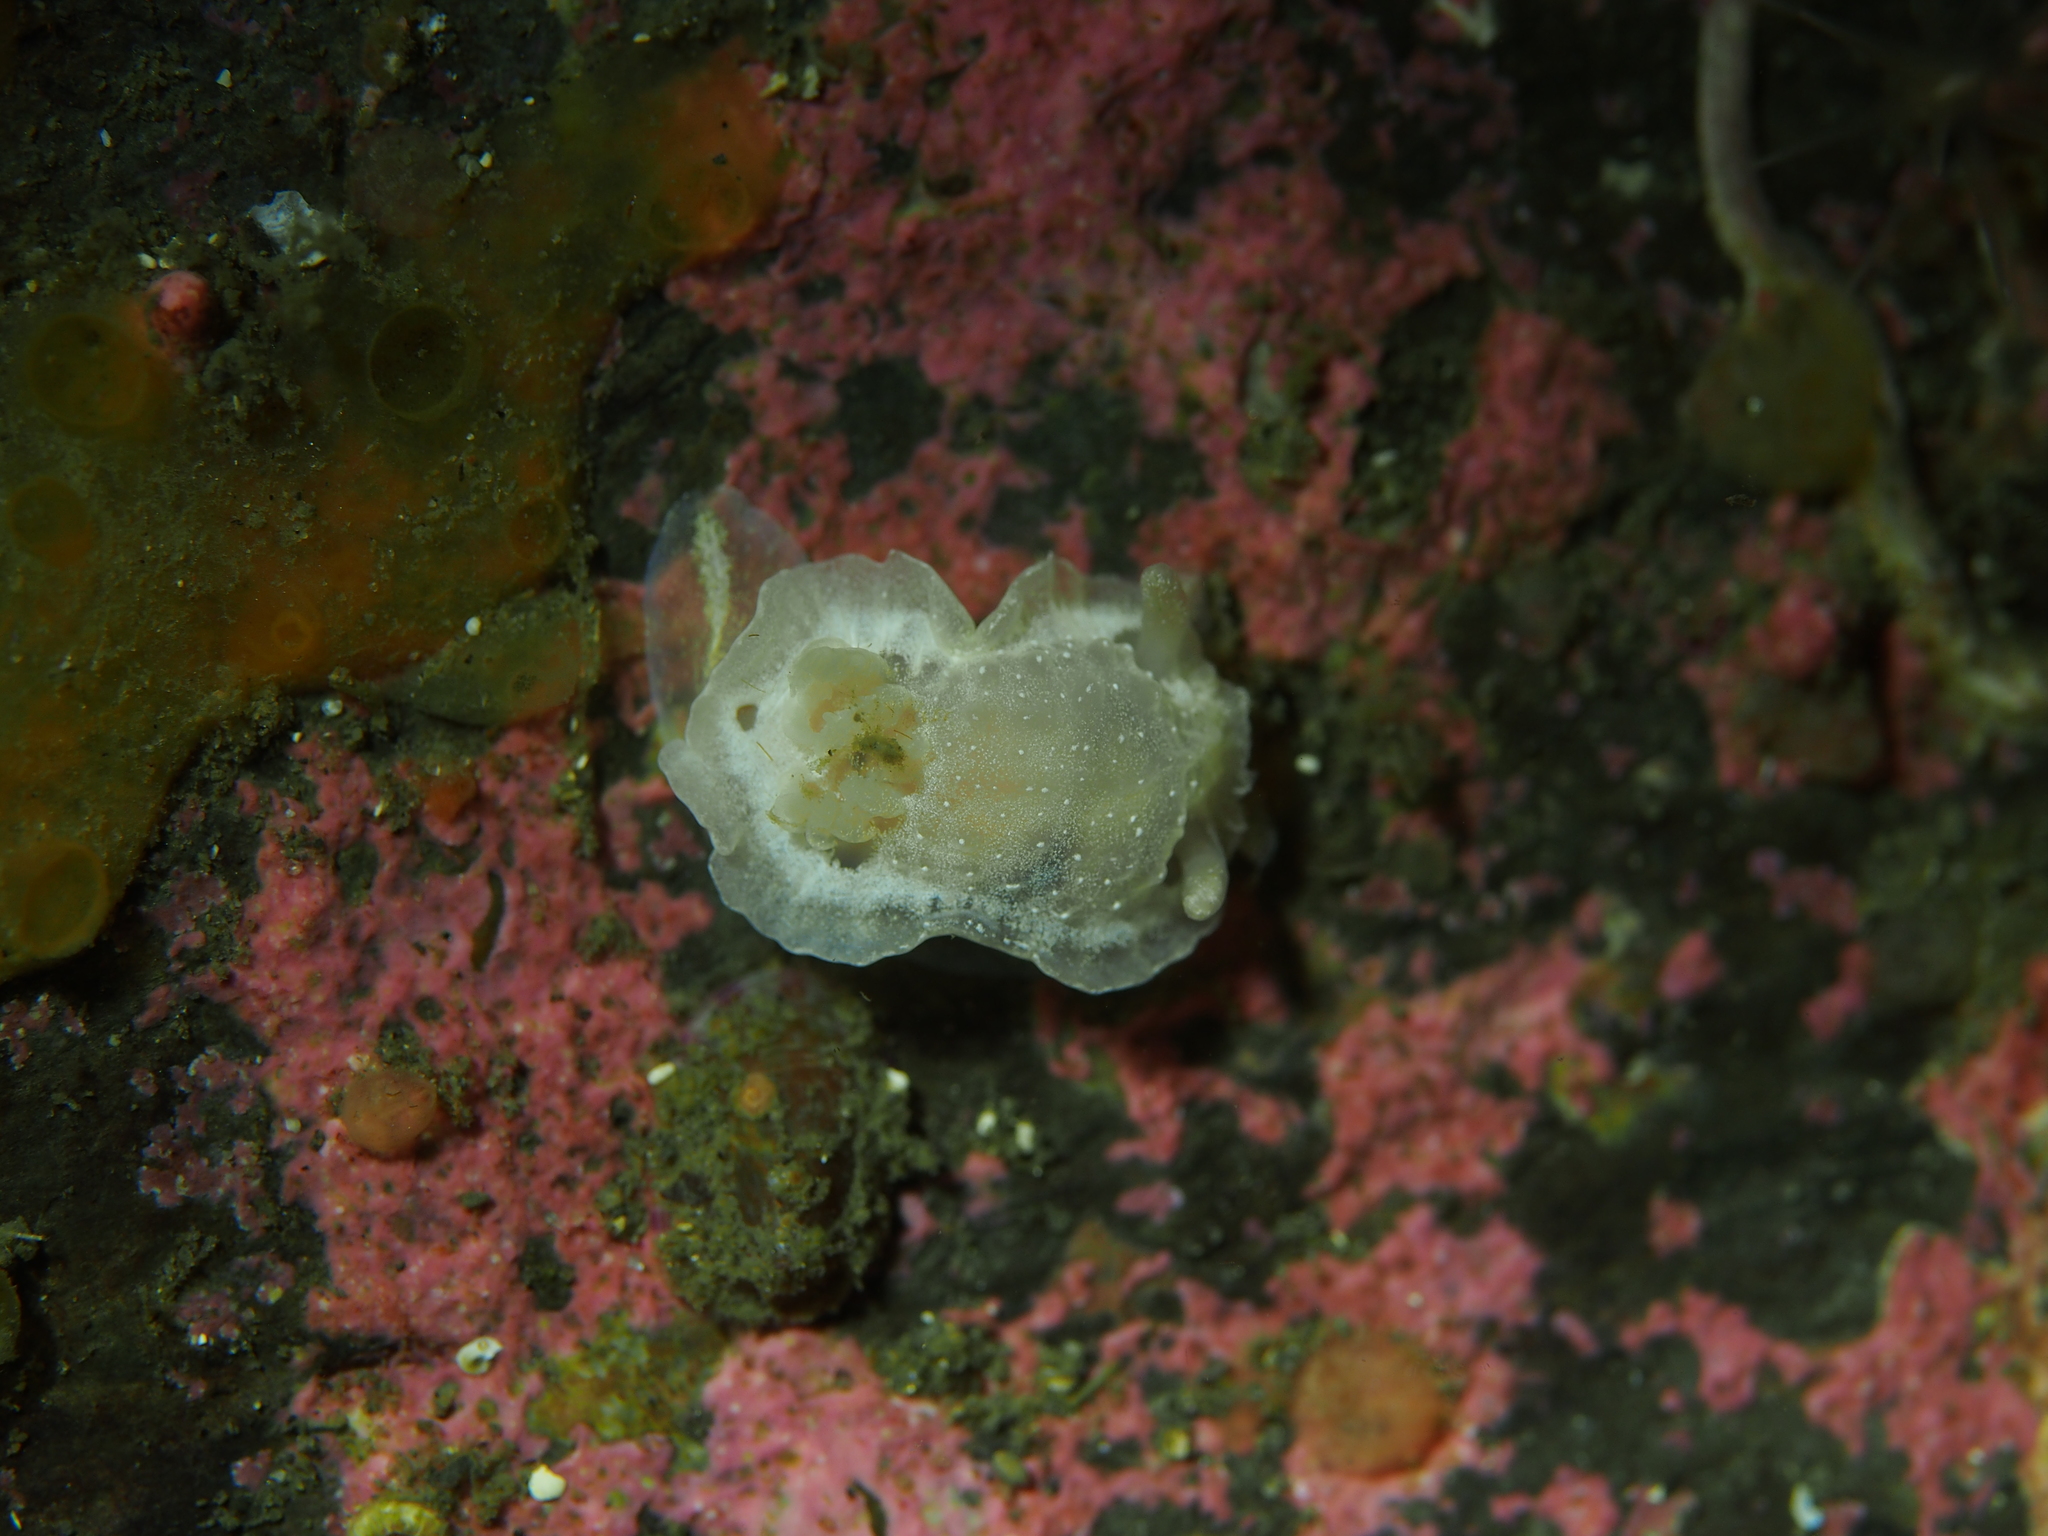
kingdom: Animalia
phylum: Mollusca
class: Gastropoda
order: Nudibranchia
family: Goniodorididae
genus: Okenia
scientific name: Okenia
